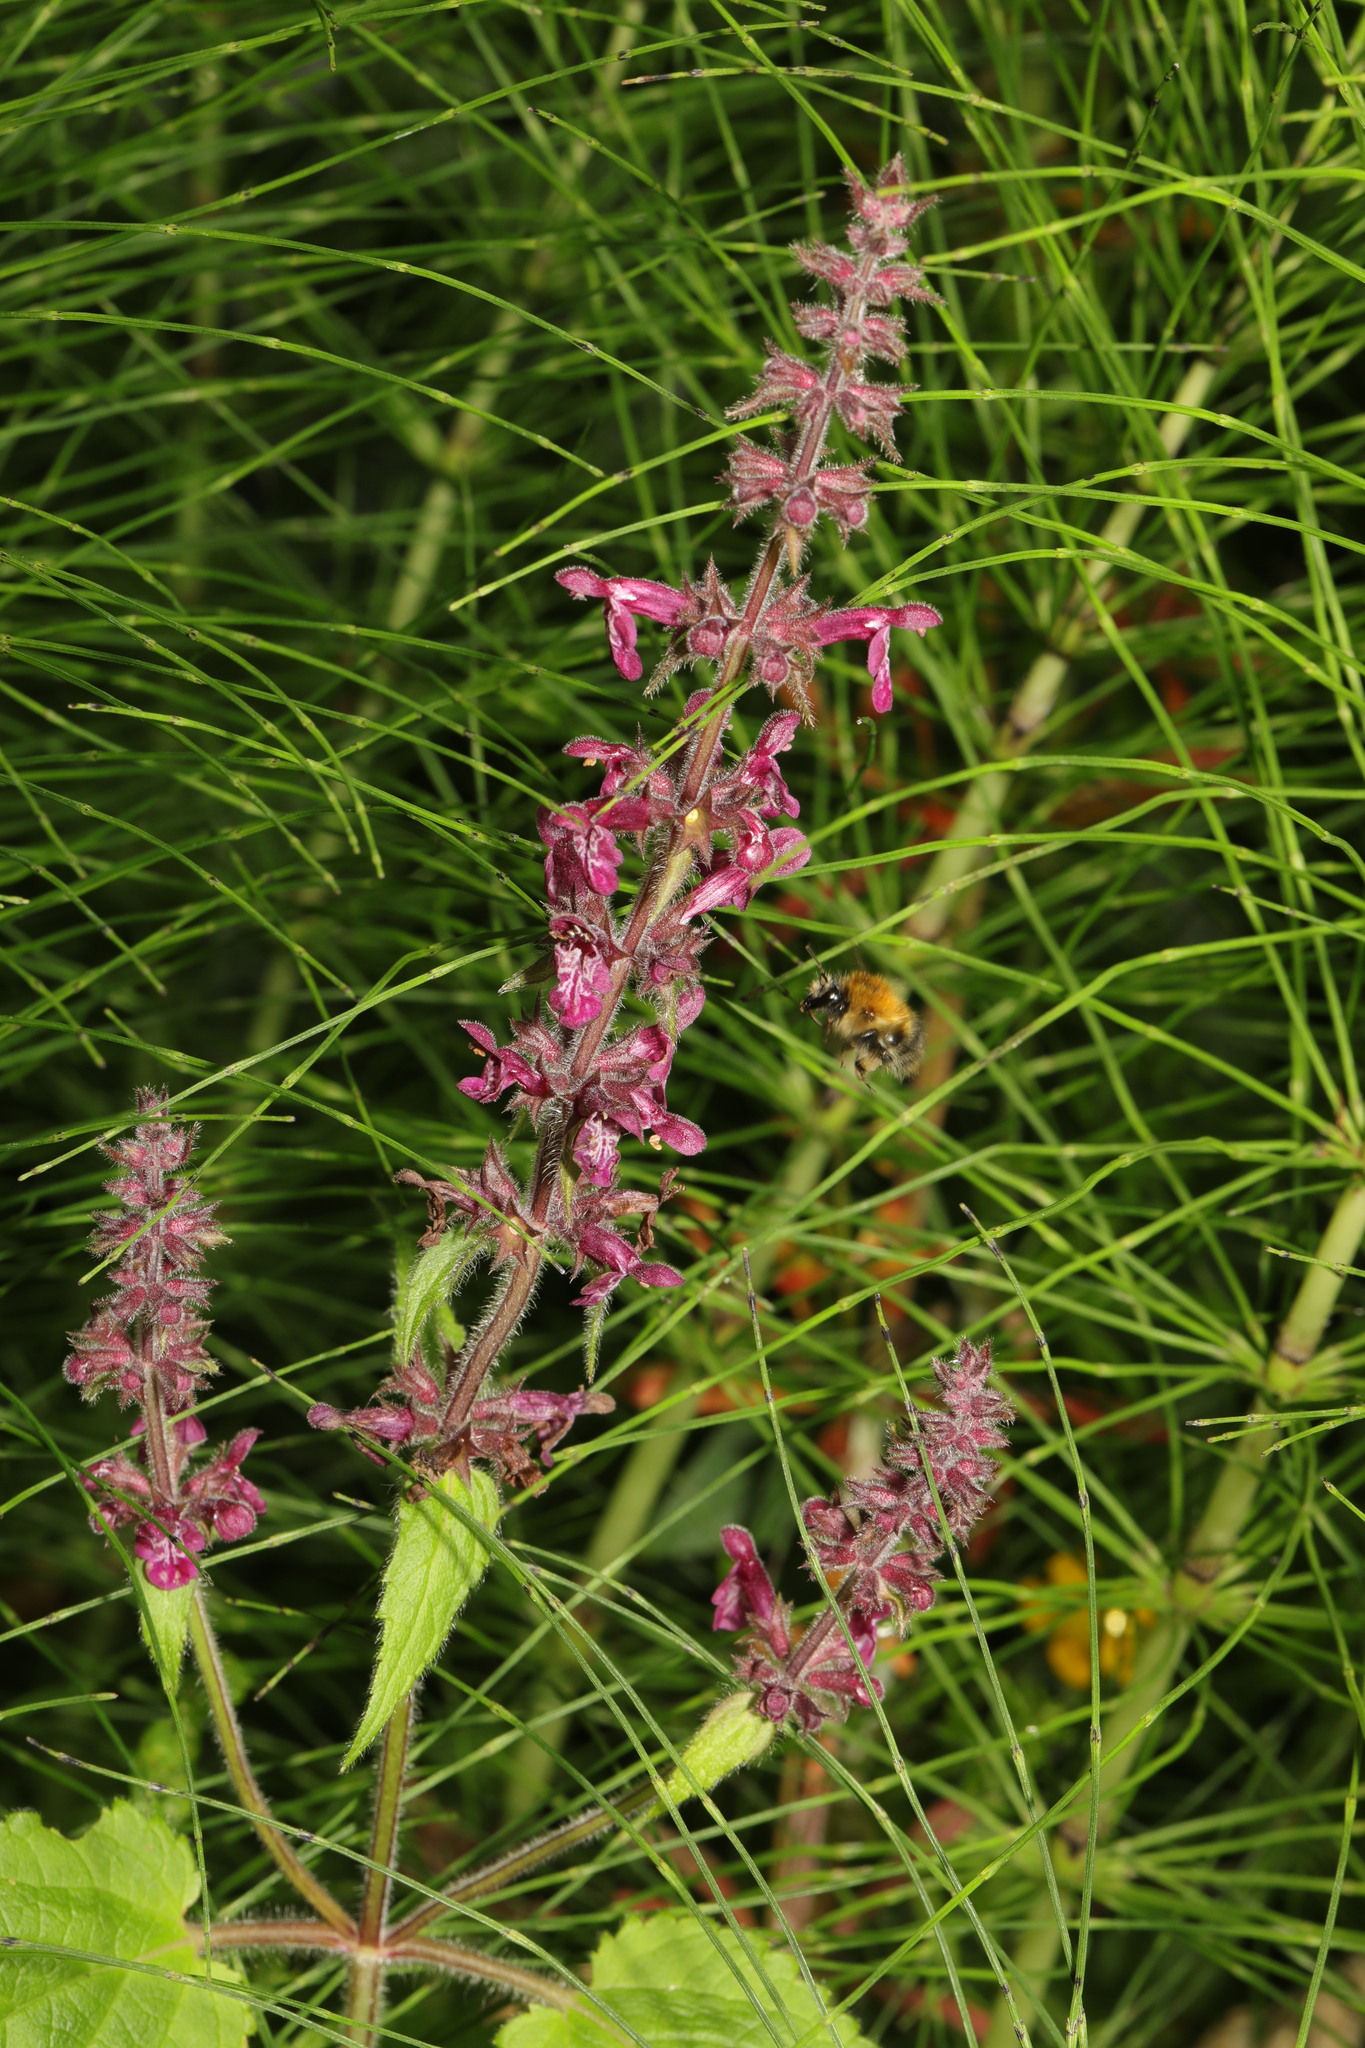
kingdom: Plantae
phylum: Tracheophyta
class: Magnoliopsida
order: Lamiales
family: Lamiaceae
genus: Stachys
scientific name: Stachys sylvatica
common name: Hedge woundwort
